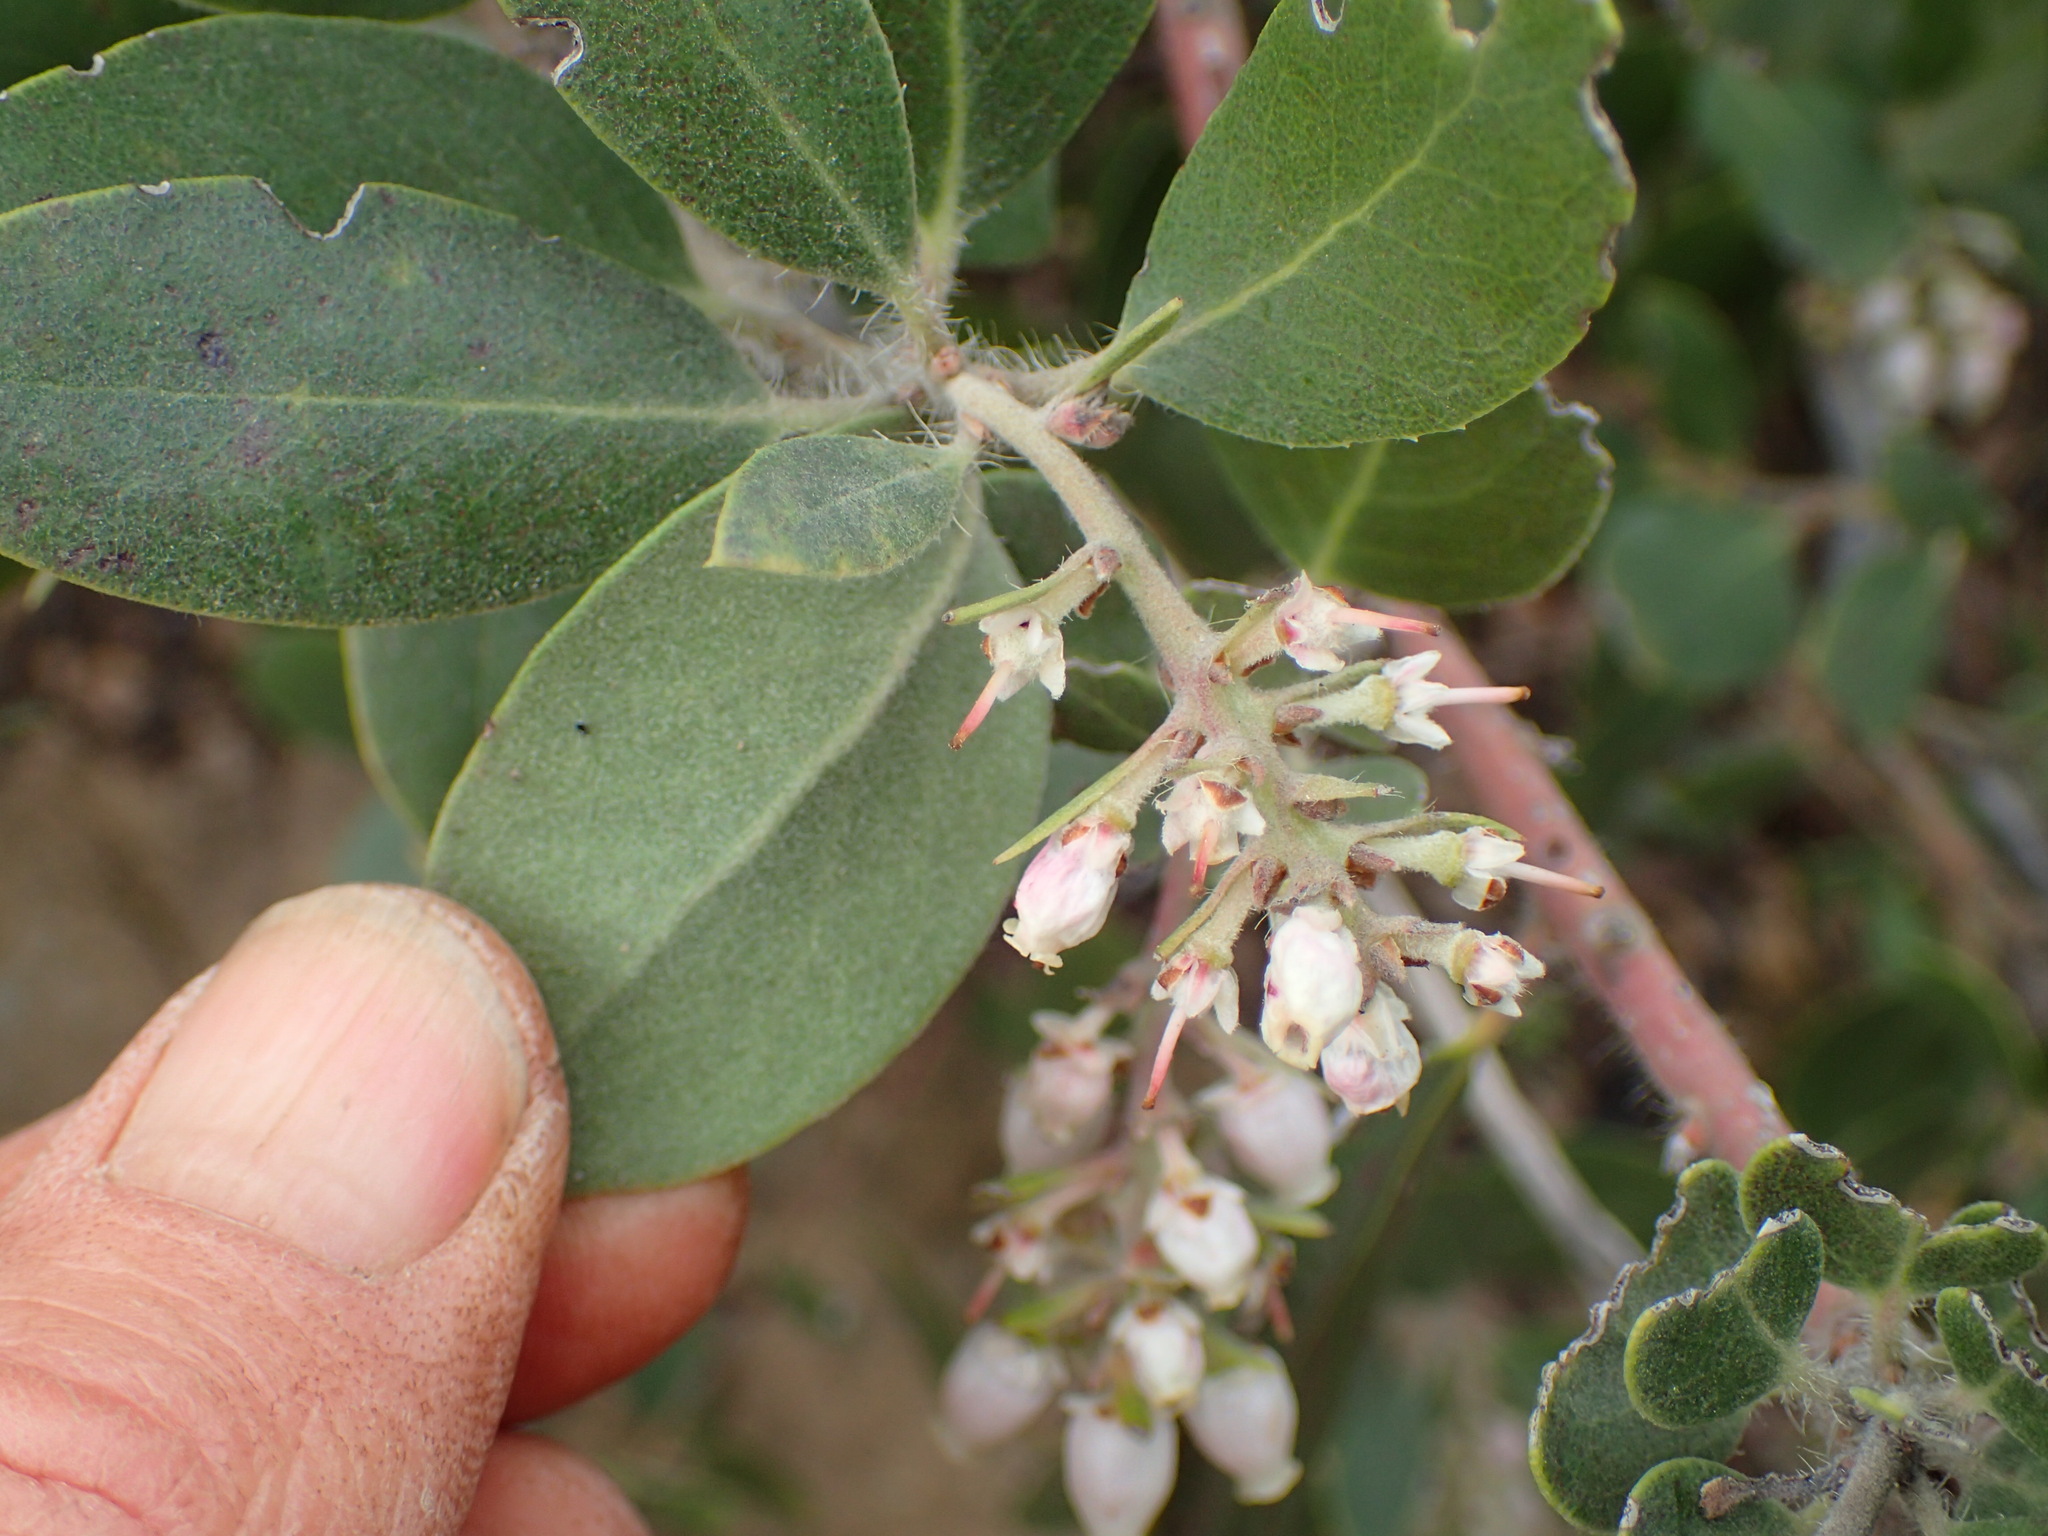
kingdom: Plantae
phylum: Tracheophyta
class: Magnoliopsida
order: Ericales
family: Ericaceae
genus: Arctostaphylos
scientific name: Arctostaphylos crustacea
